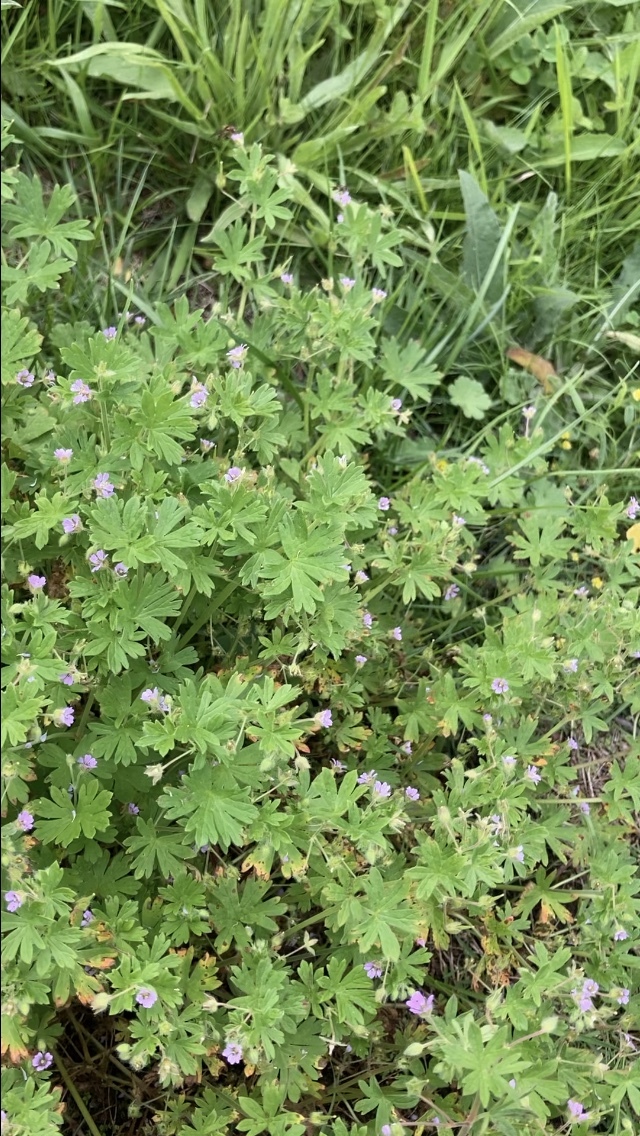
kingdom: Plantae
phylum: Tracheophyta
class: Magnoliopsida
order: Geraniales
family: Geraniaceae
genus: Geranium
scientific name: Geranium pusillum
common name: Small geranium
